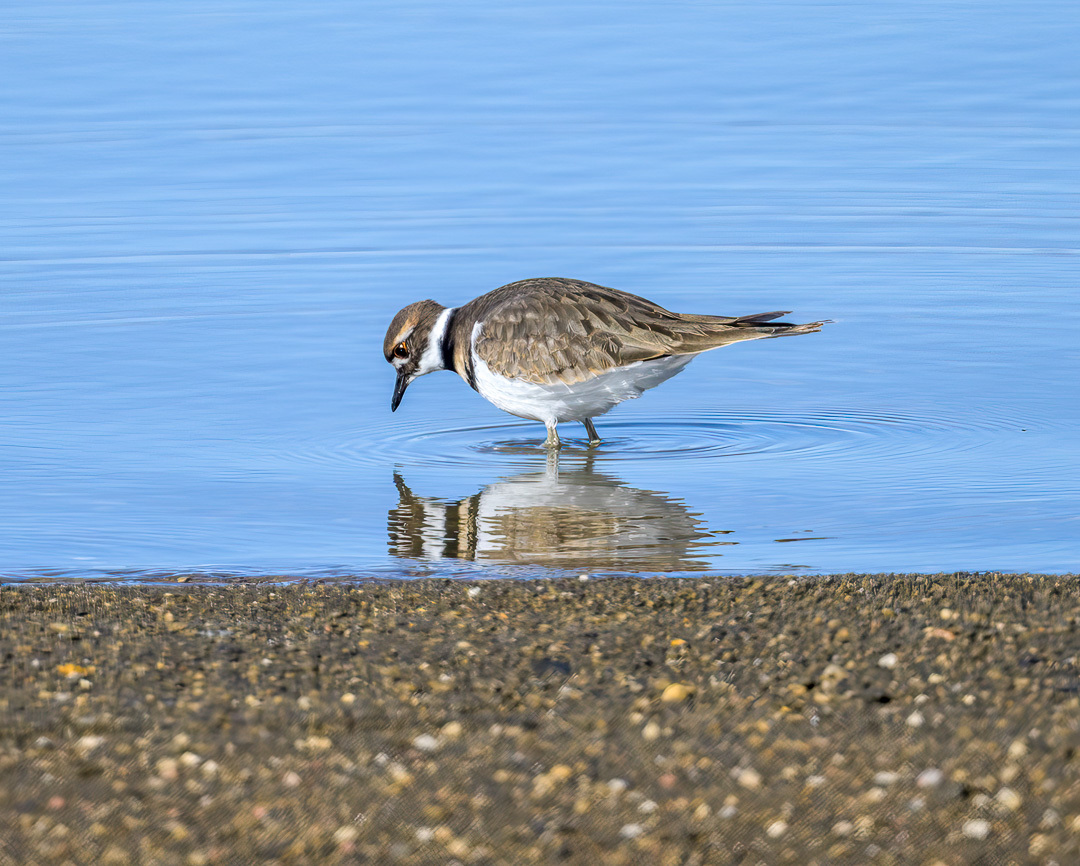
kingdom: Animalia
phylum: Chordata
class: Aves
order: Charadriiformes
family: Charadriidae
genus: Charadrius
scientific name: Charadrius vociferus
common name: Killdeer
